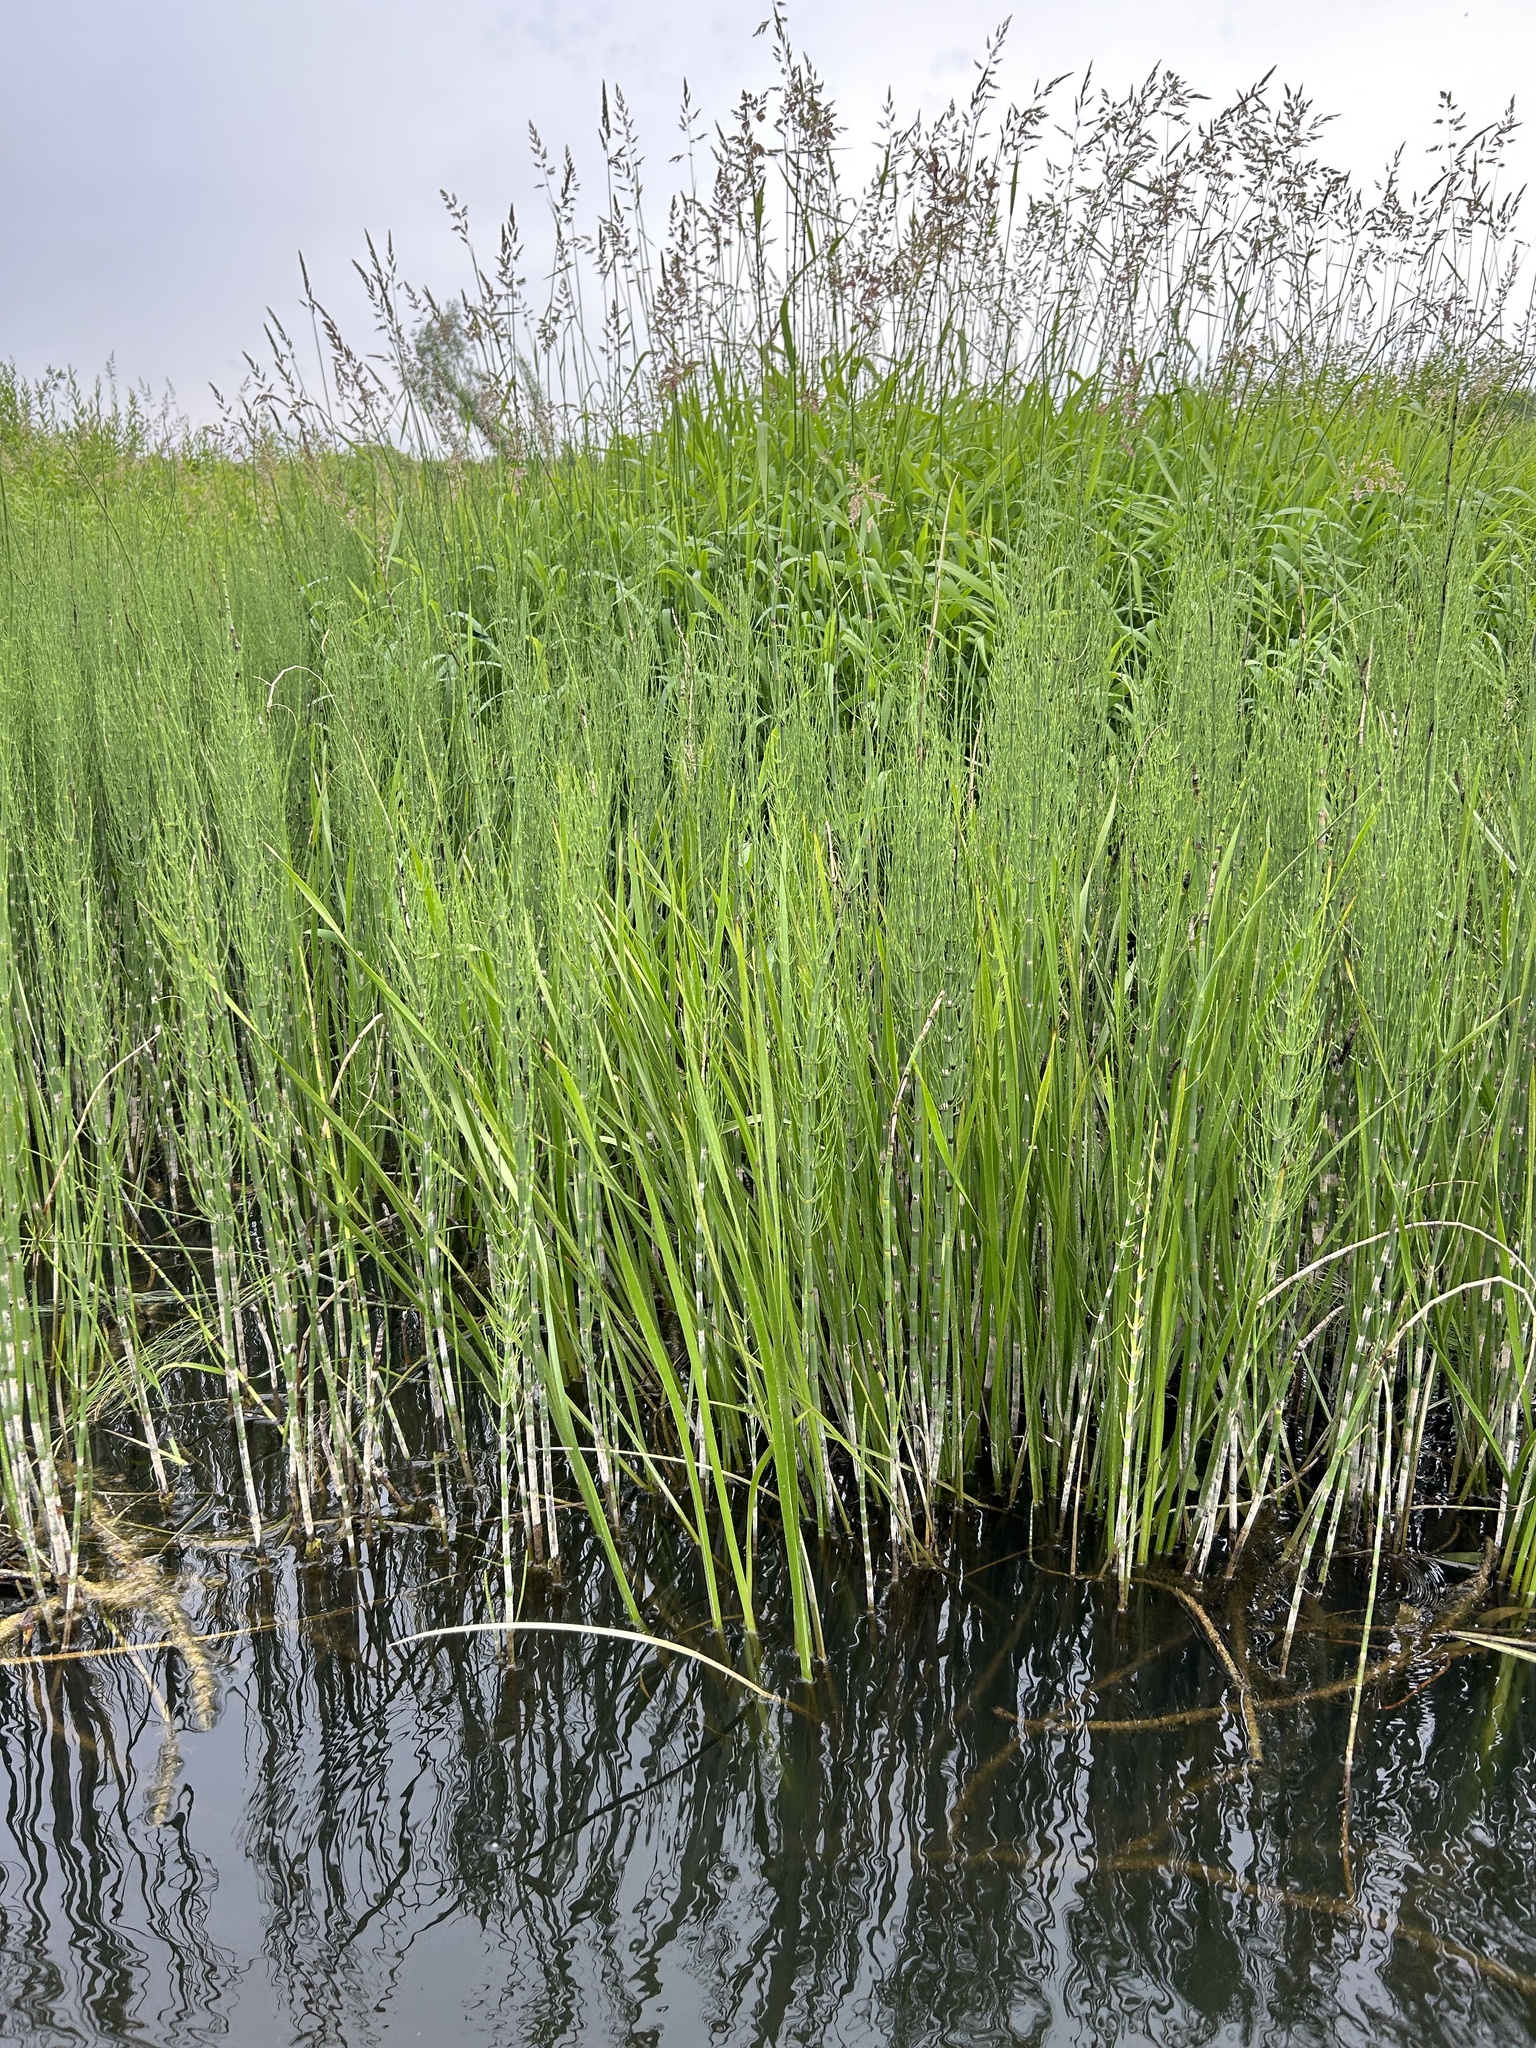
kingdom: Plantae
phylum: Tracheophyta
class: Polypodiopsida
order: Equisetales
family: Equisetaceae
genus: Equisetum
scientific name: Equisetum fluviatile
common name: Water horsetail
